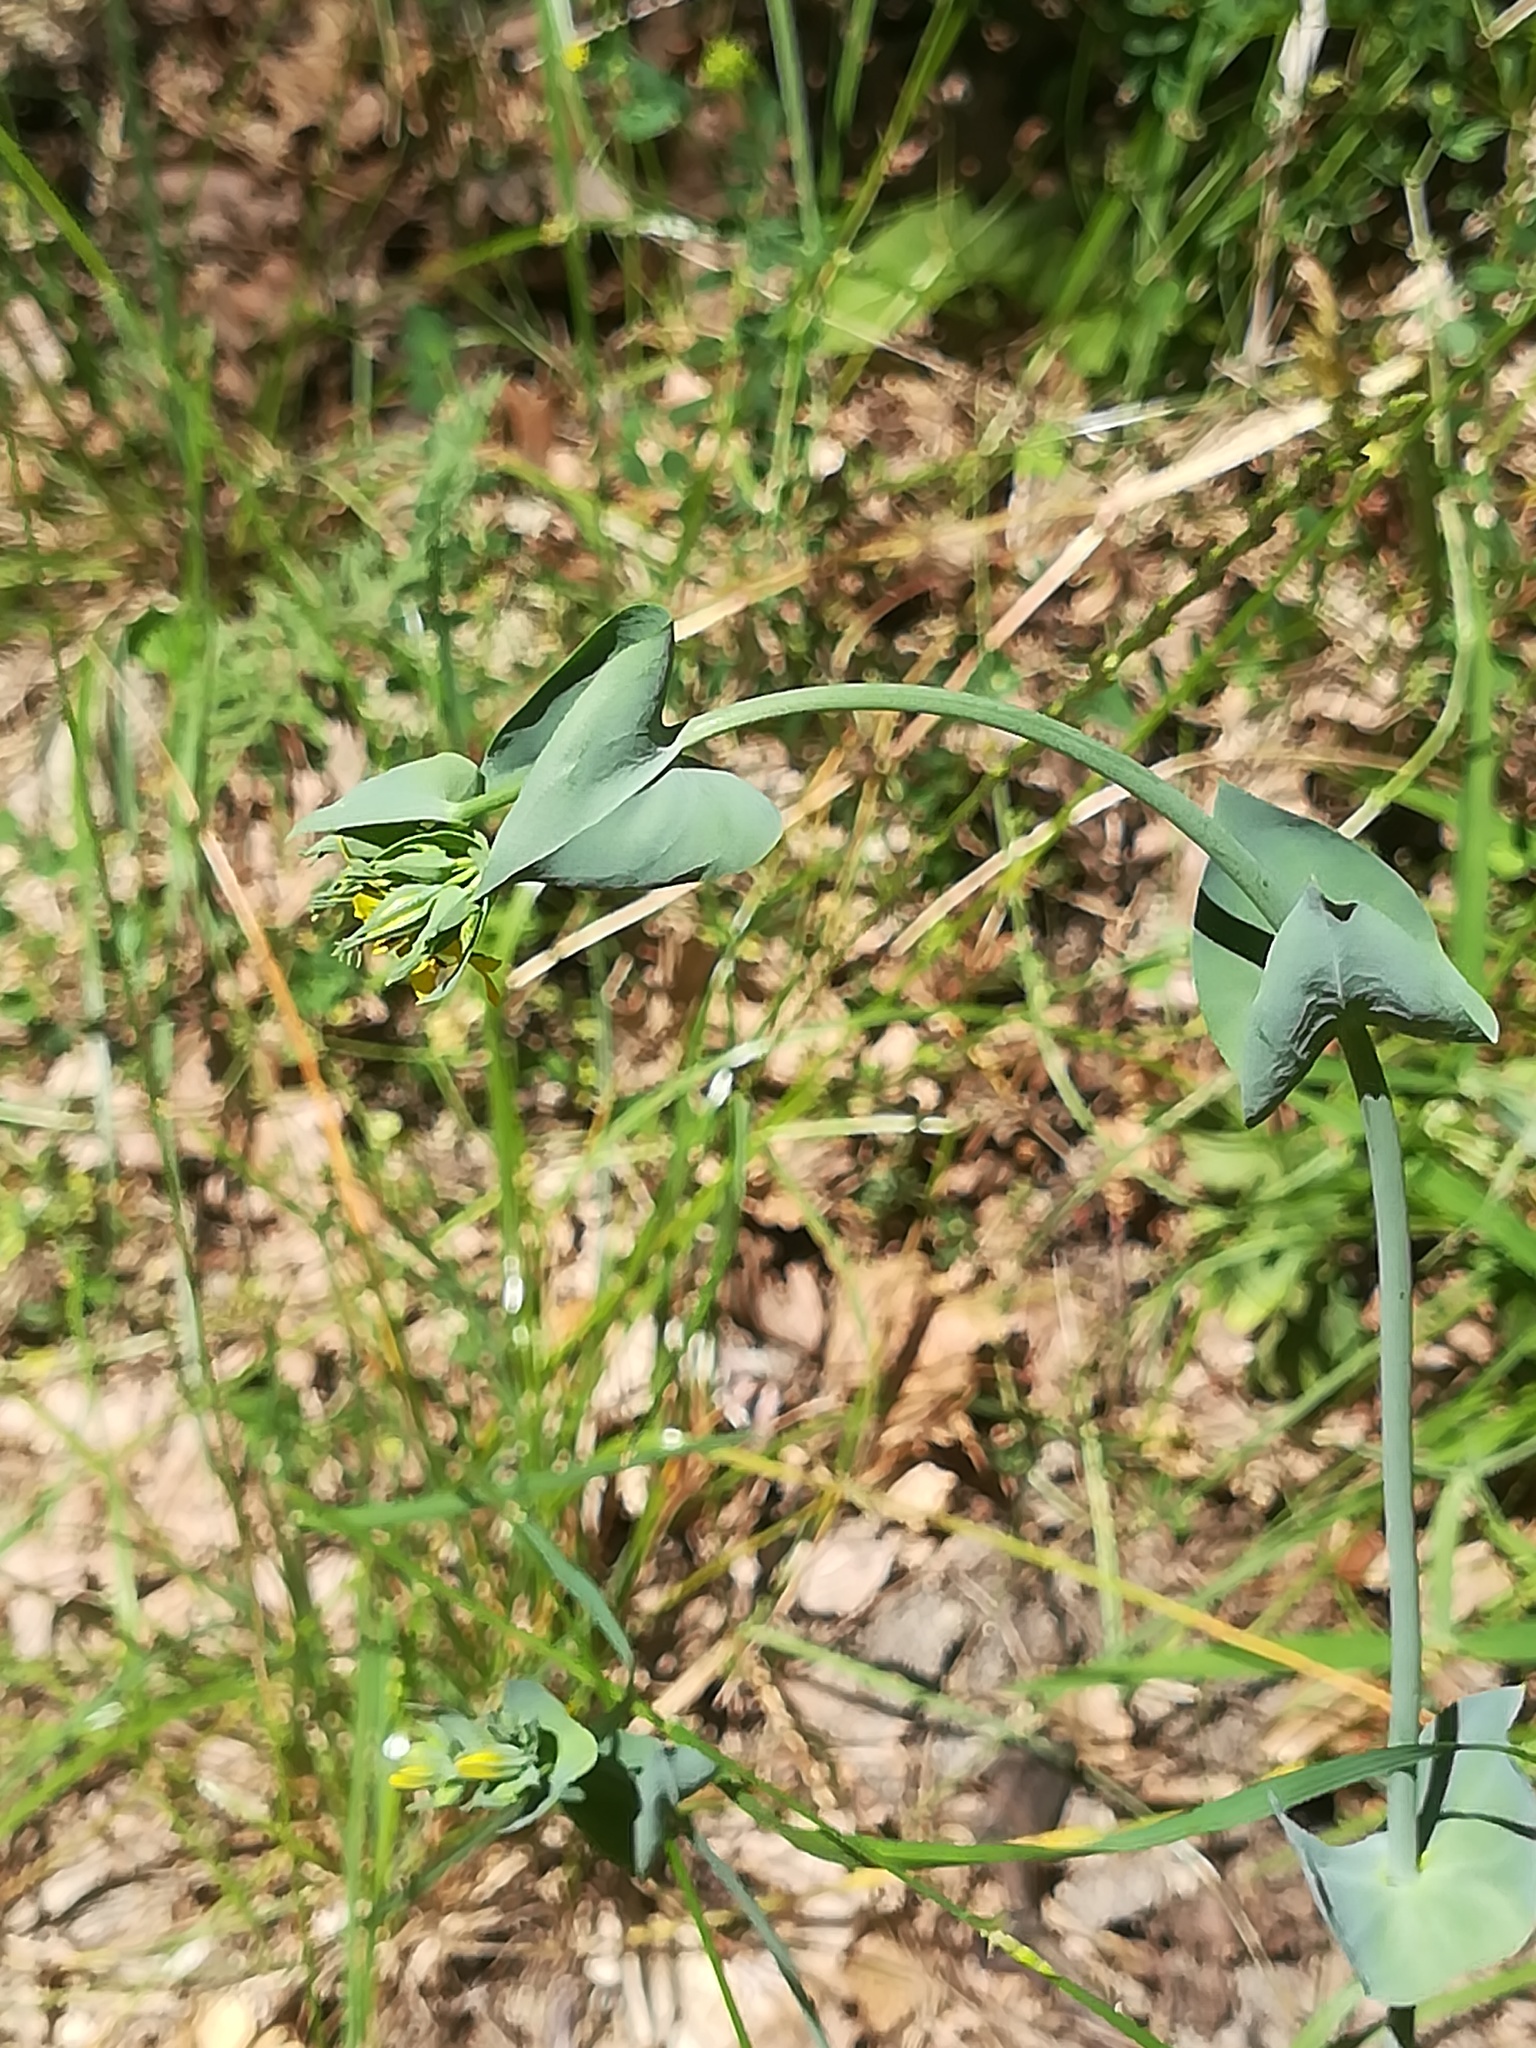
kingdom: Plantae
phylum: Tracheophyta
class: Magnoliopsida
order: Gentianales
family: Gentianaceae
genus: Blackstonia
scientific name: Blackstonia perfoliata
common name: Yellow-wort
